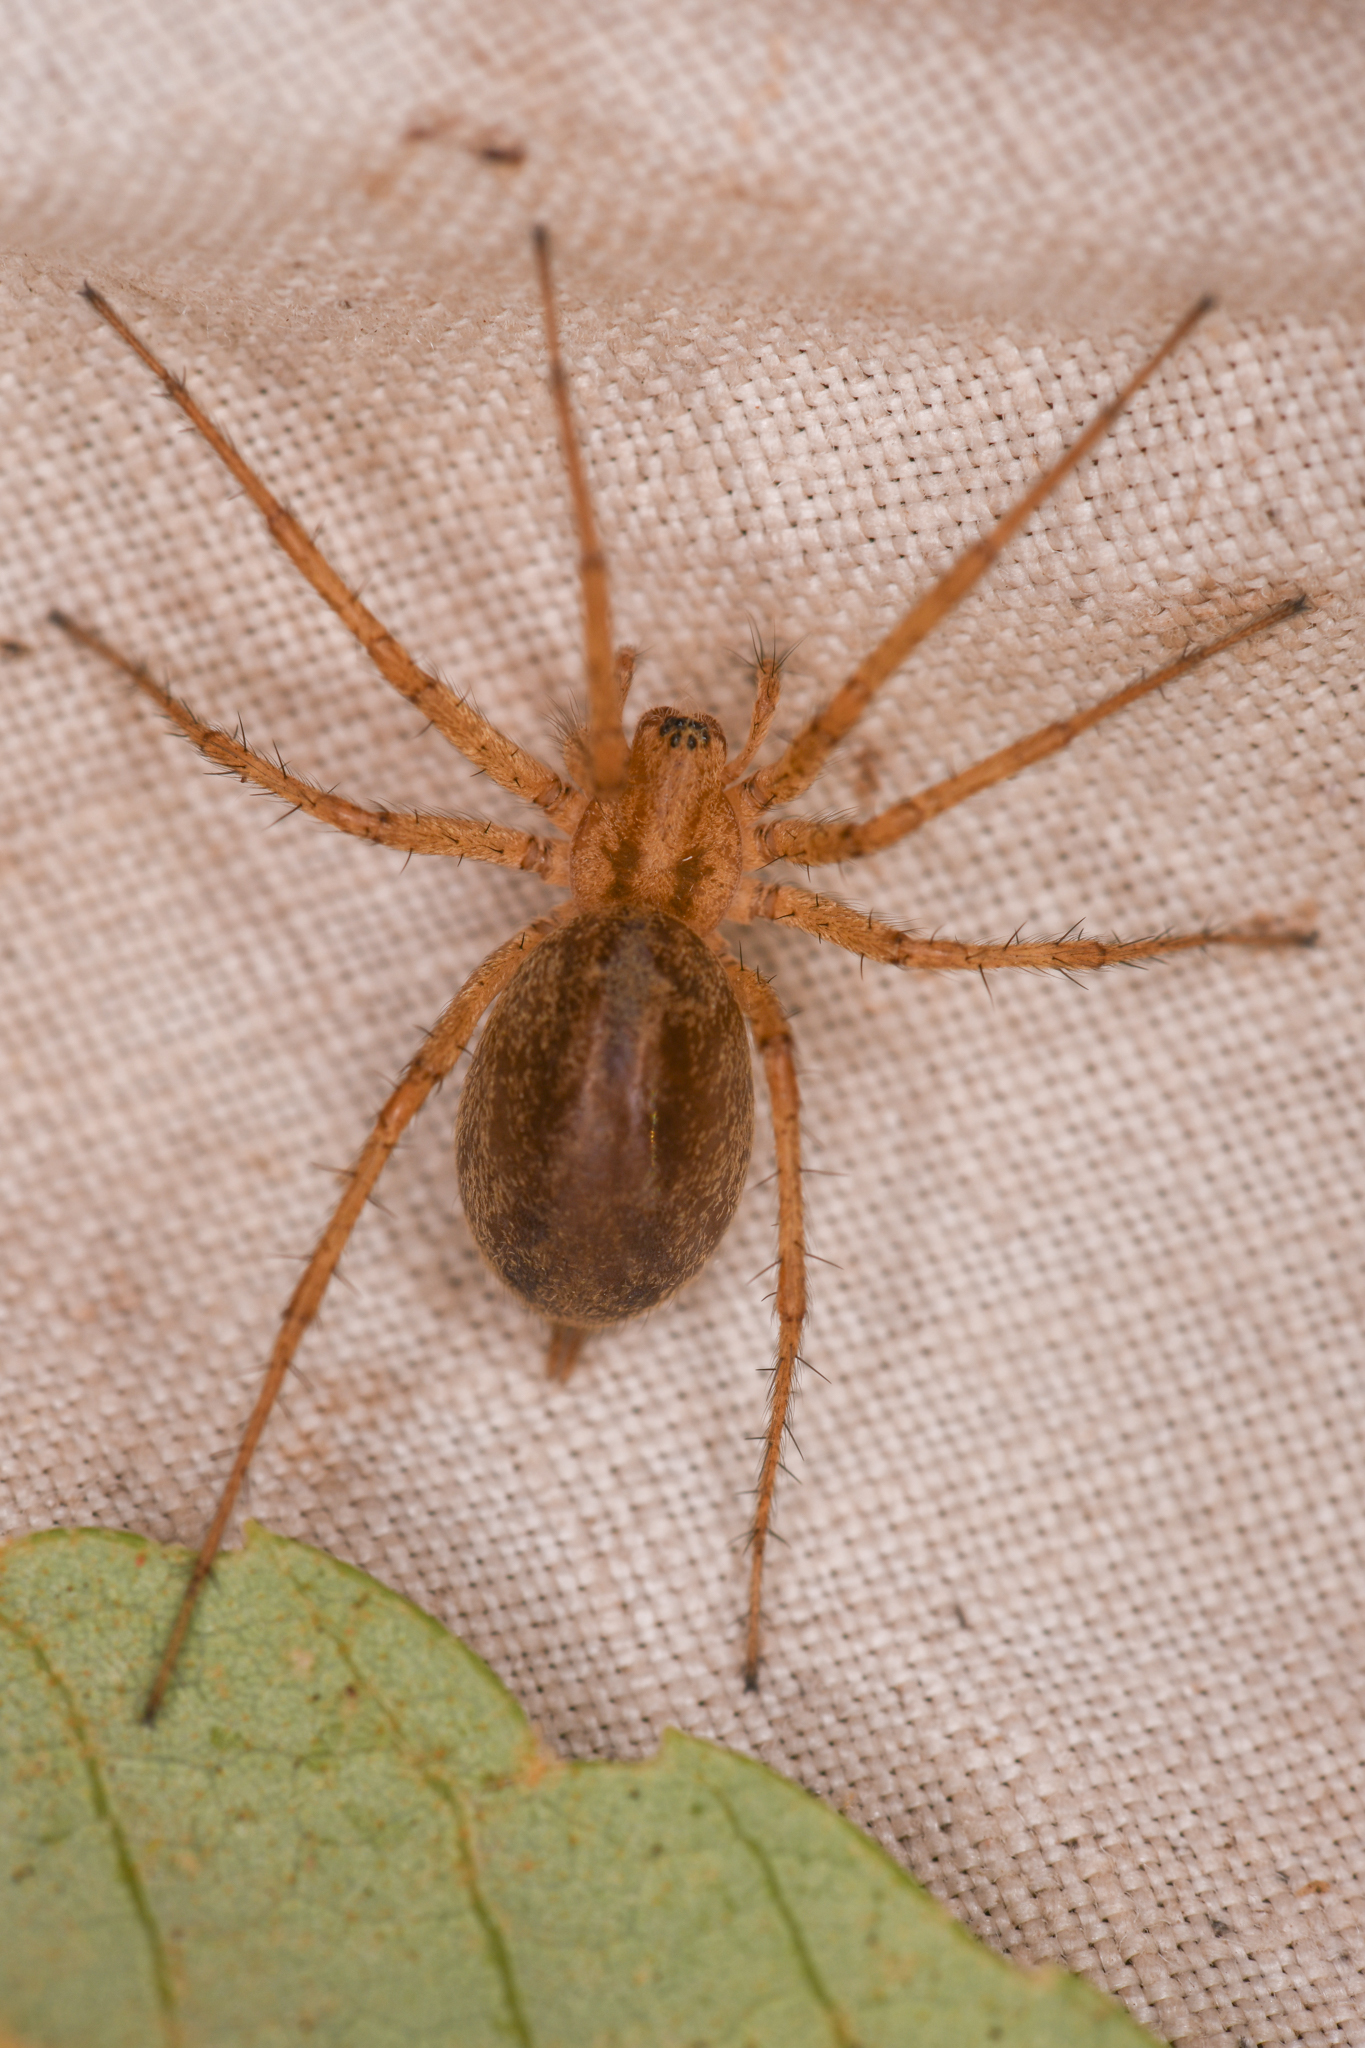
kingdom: Animalia
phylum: Arthropoda
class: Arachnida
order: Araneae
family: Agelenidae
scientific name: Agelenidae
